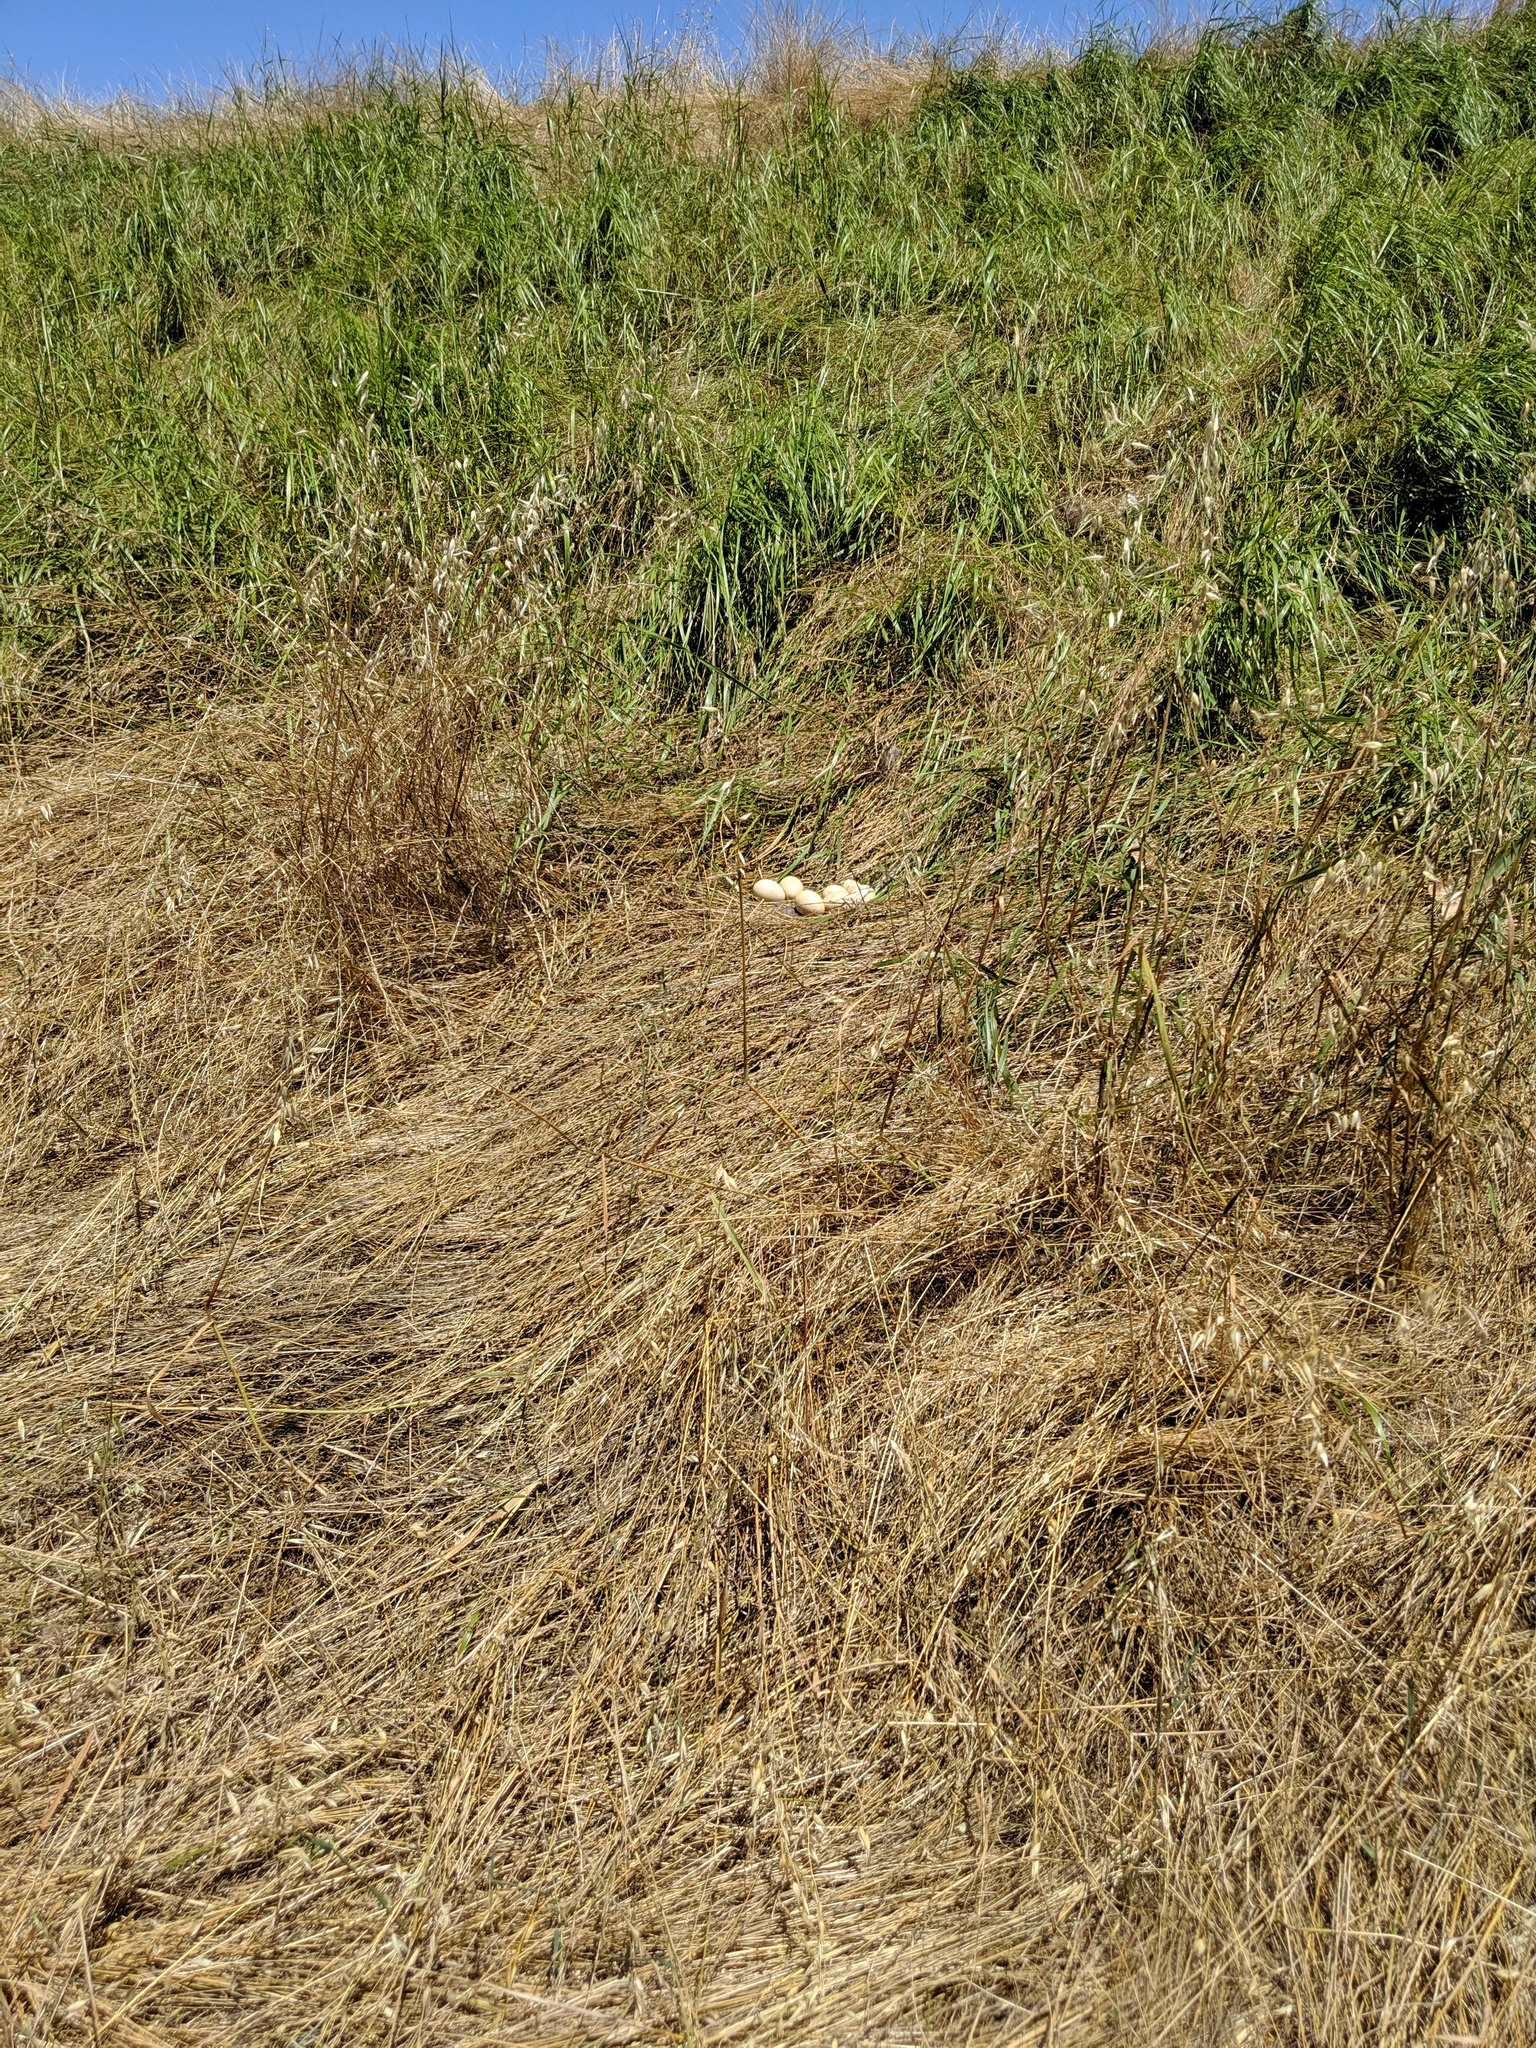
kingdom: Animalia
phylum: Chordata
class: Aves
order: Galliformes
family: Phasianidae
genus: Meleagris
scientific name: Meleagris gallopavo
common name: Wild turkey
